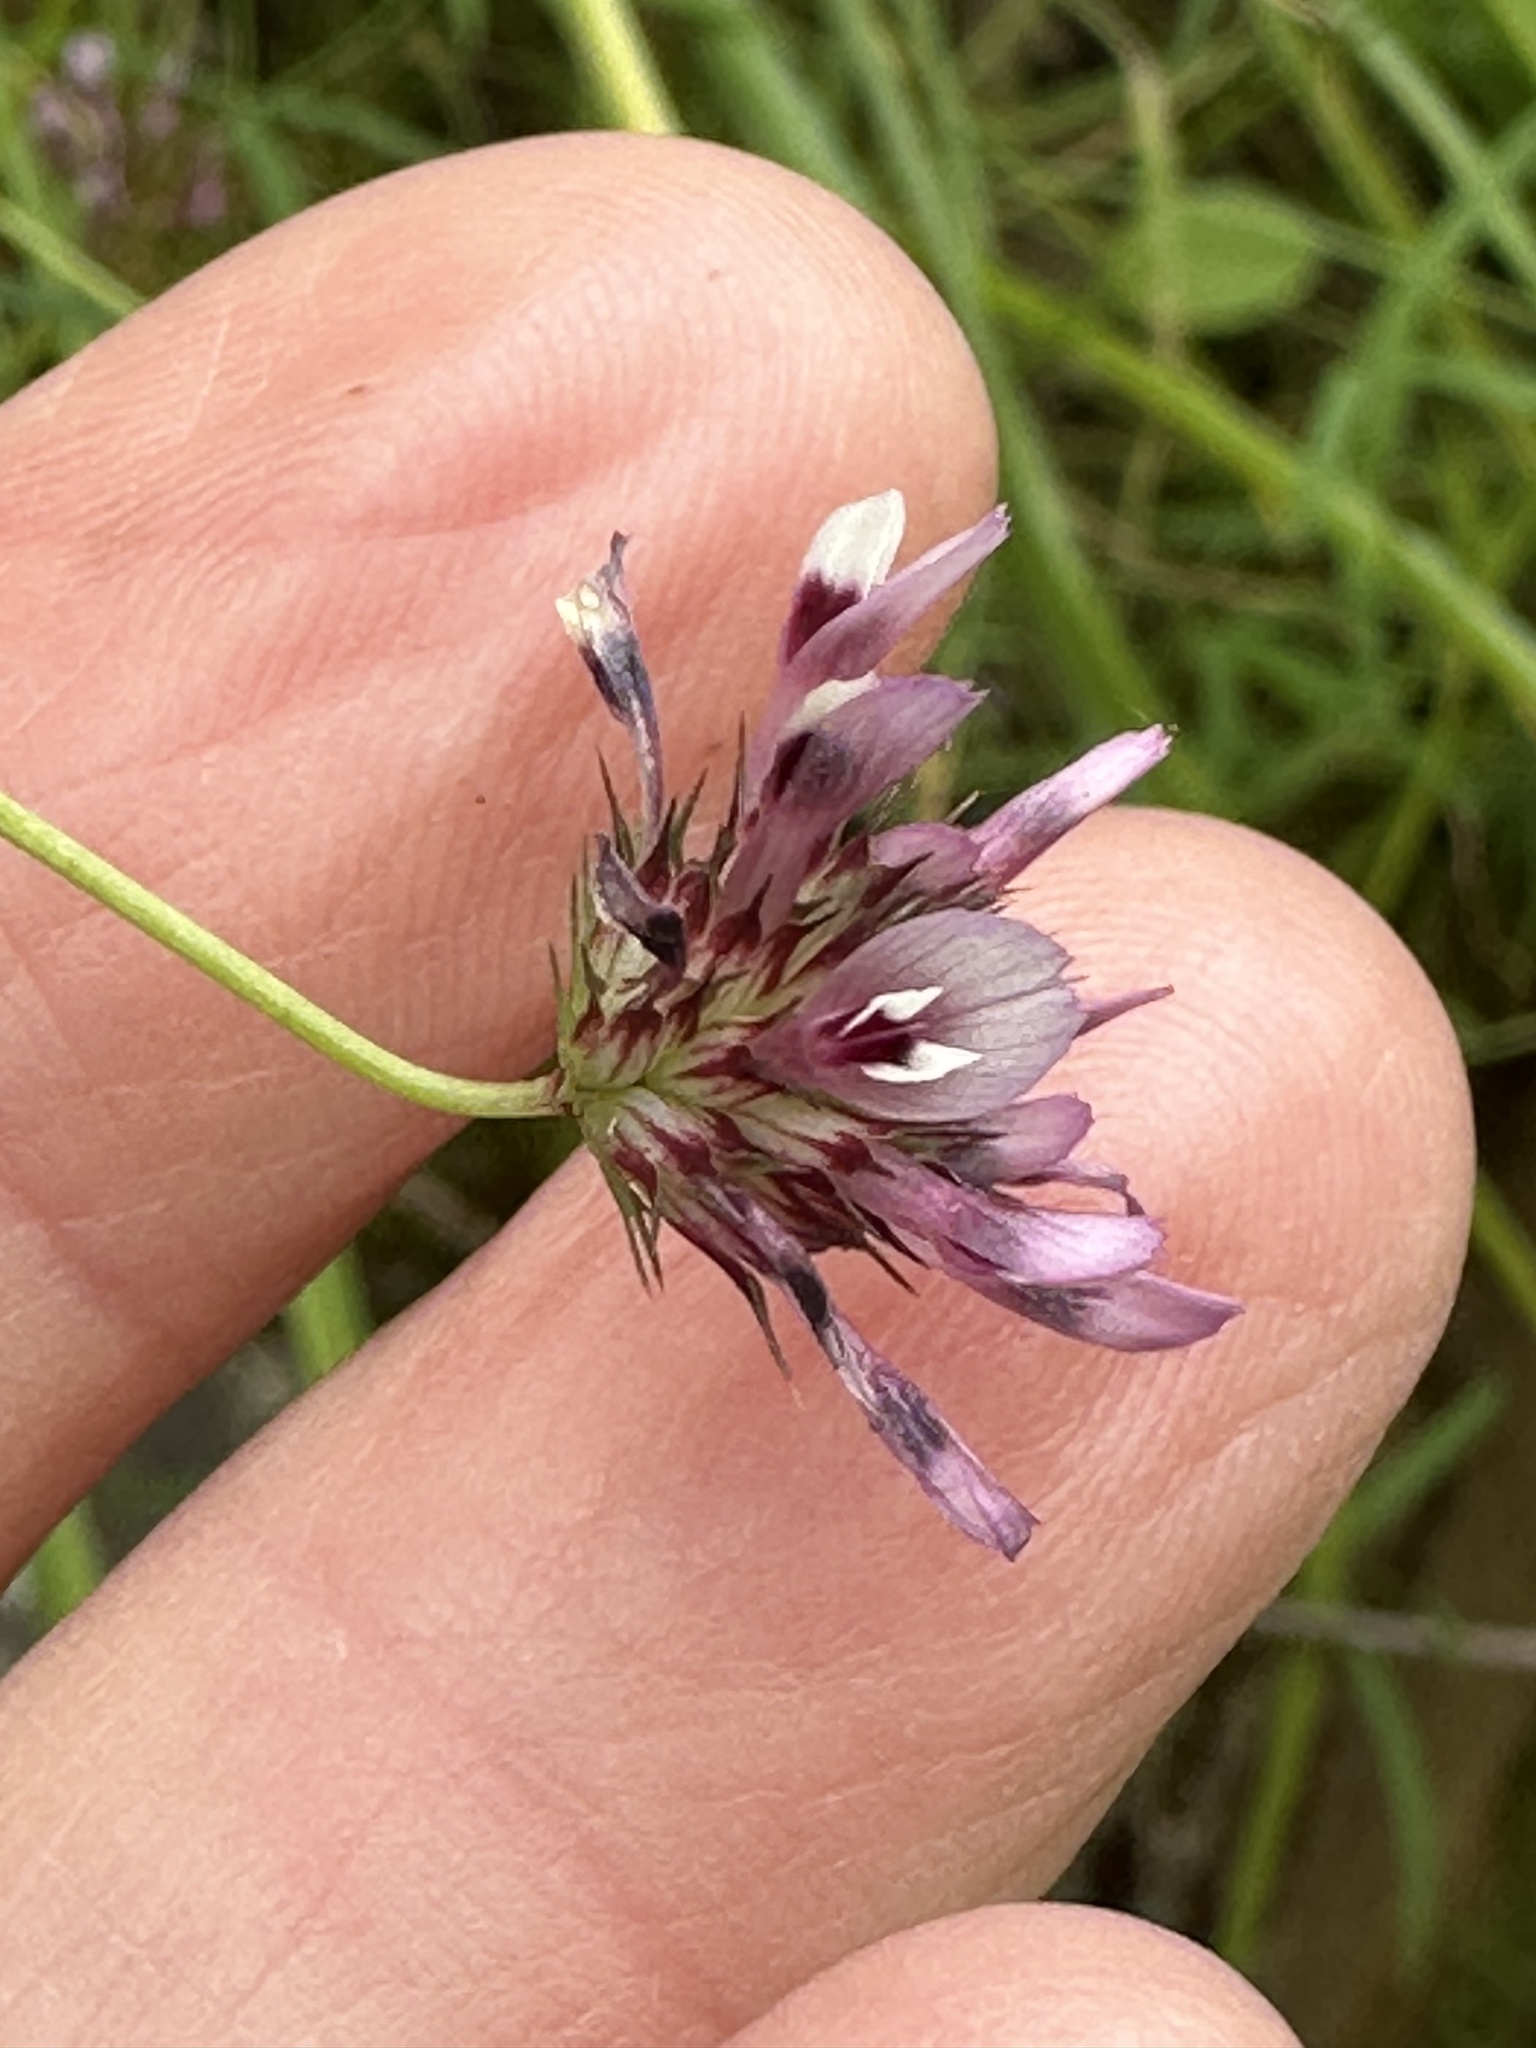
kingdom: Plantae
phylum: Tracheophyta
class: Magnoliopsida
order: Fabales
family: Fabaceae
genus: Trifolium
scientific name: Trifolium willdenovii
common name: Tomcat clover
